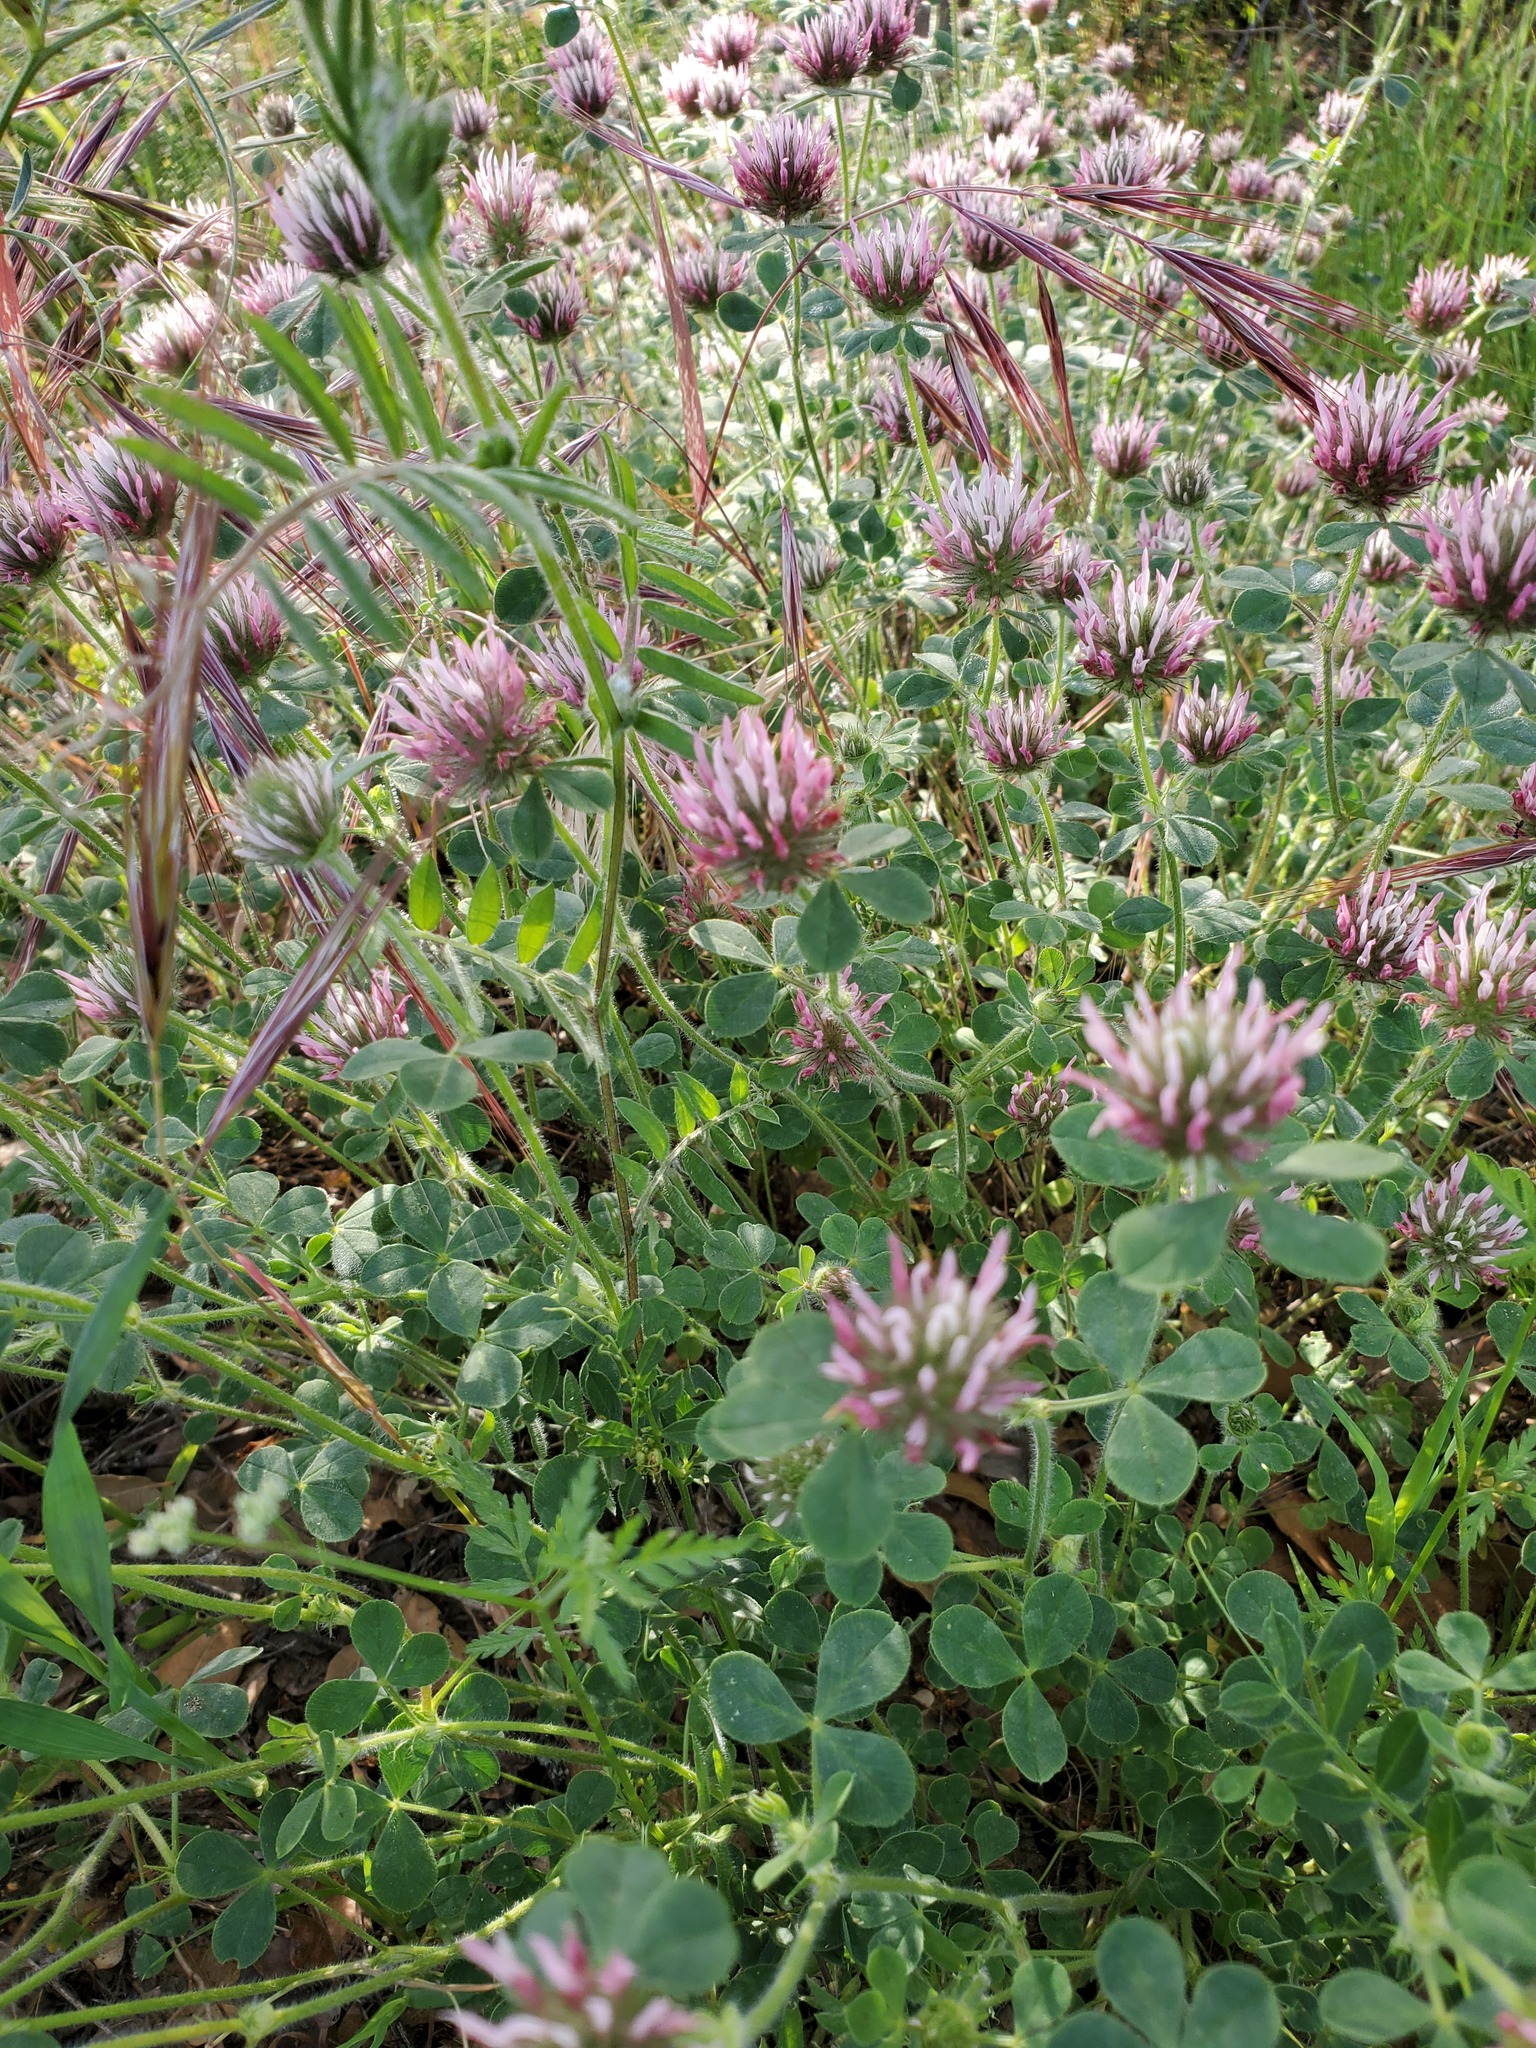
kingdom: Plantae
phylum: Tracheophyta
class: Magnoliopsida
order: Fabales
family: Fabaceae
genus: Trifolium
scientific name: Trifolium hirtum
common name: Rose clover
